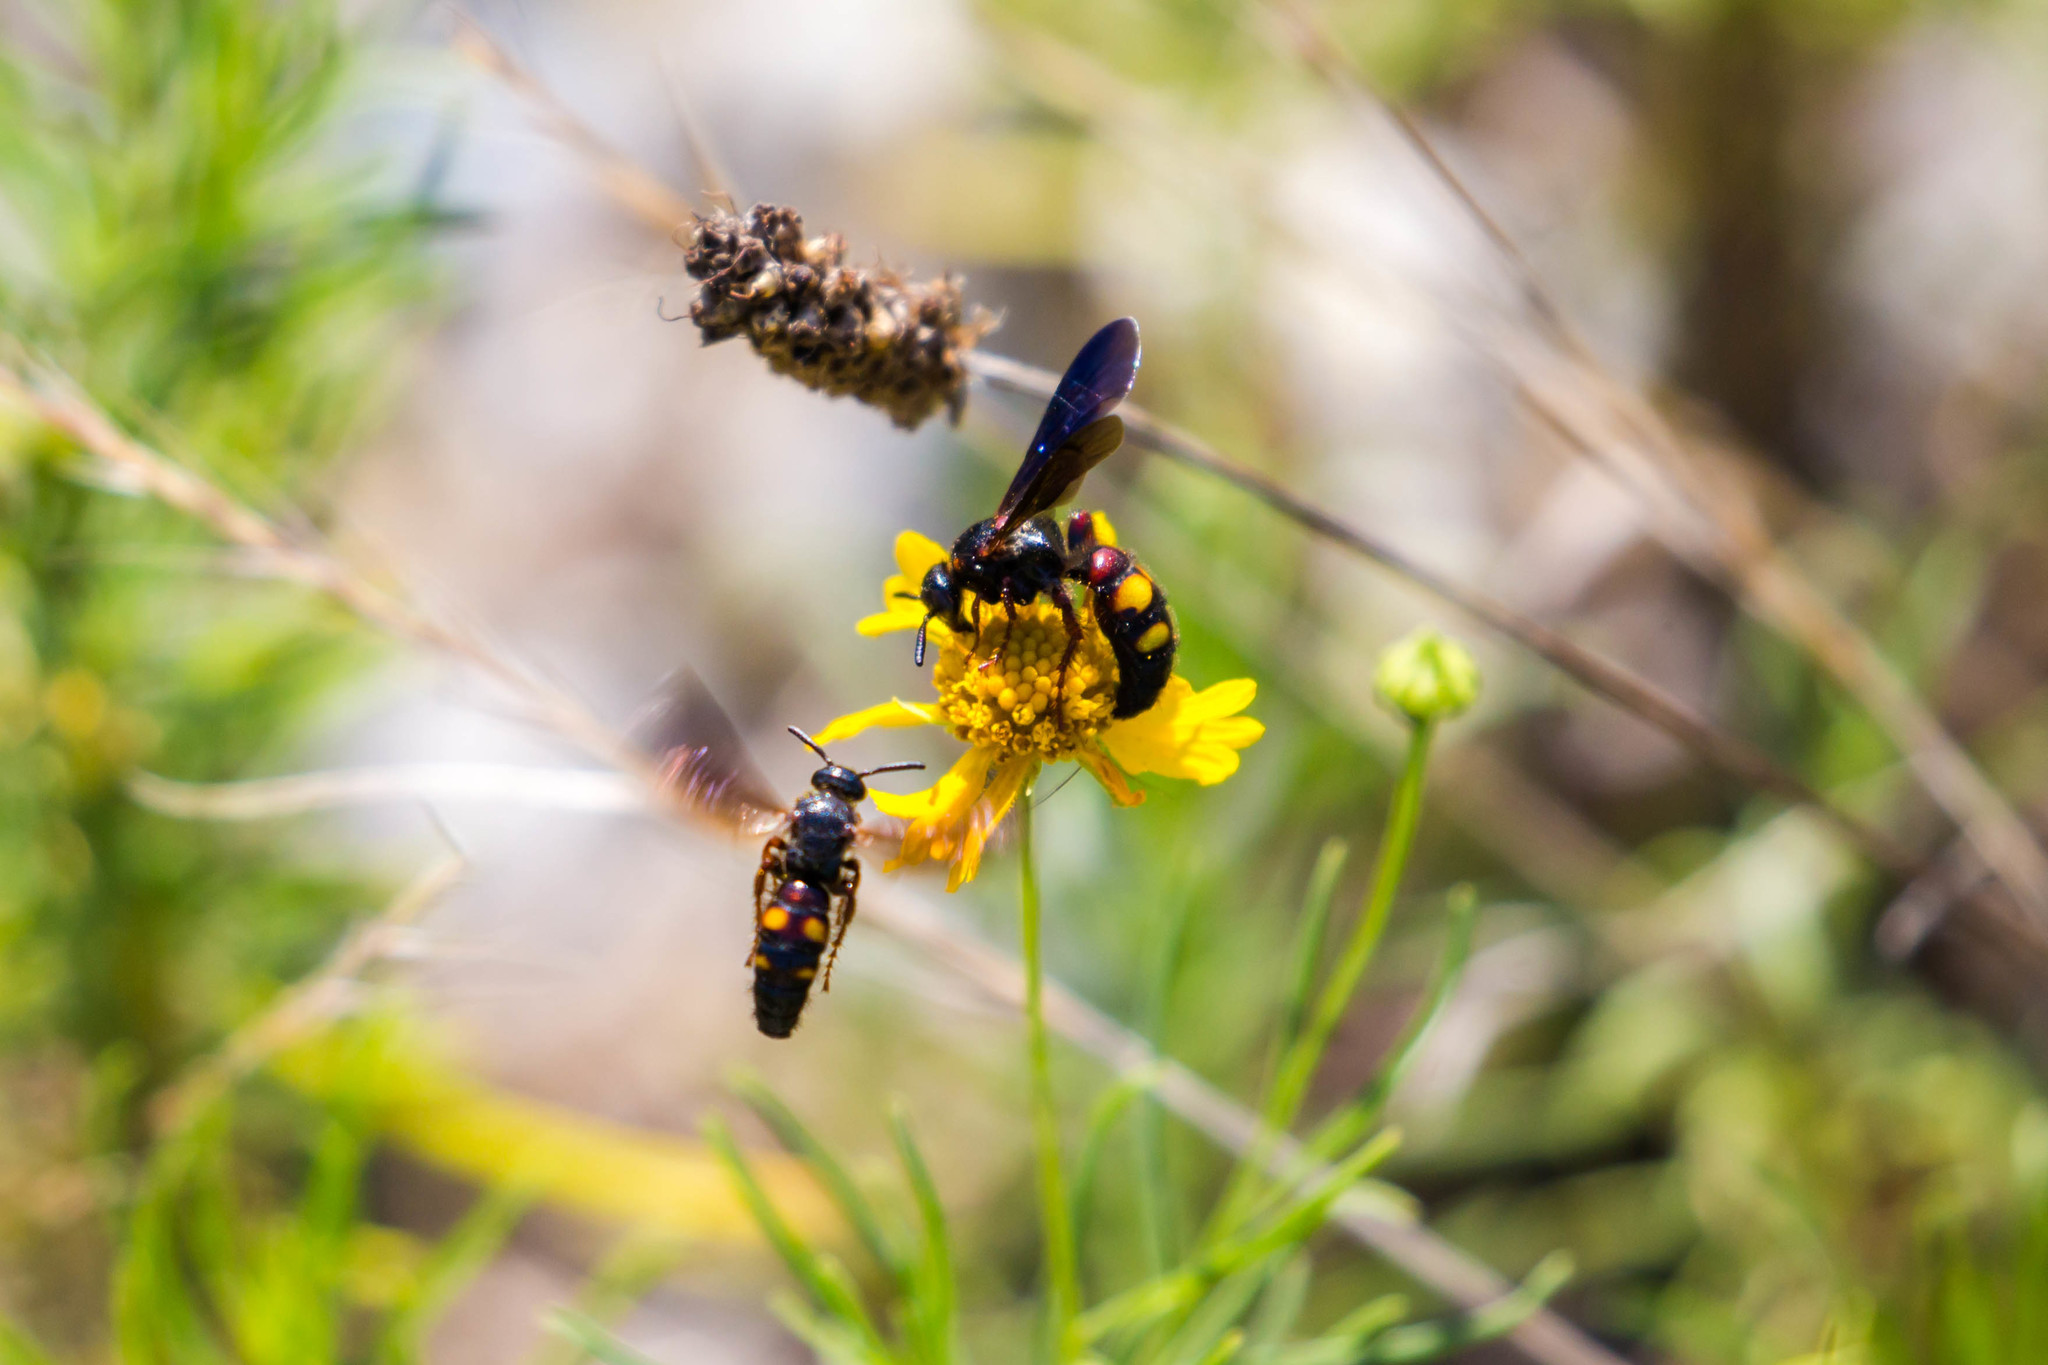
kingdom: Animalia
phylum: Arthropoda
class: Insecta
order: Hymenoptera
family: Scoliidae
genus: Scolia
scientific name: Scolia nobilitata
